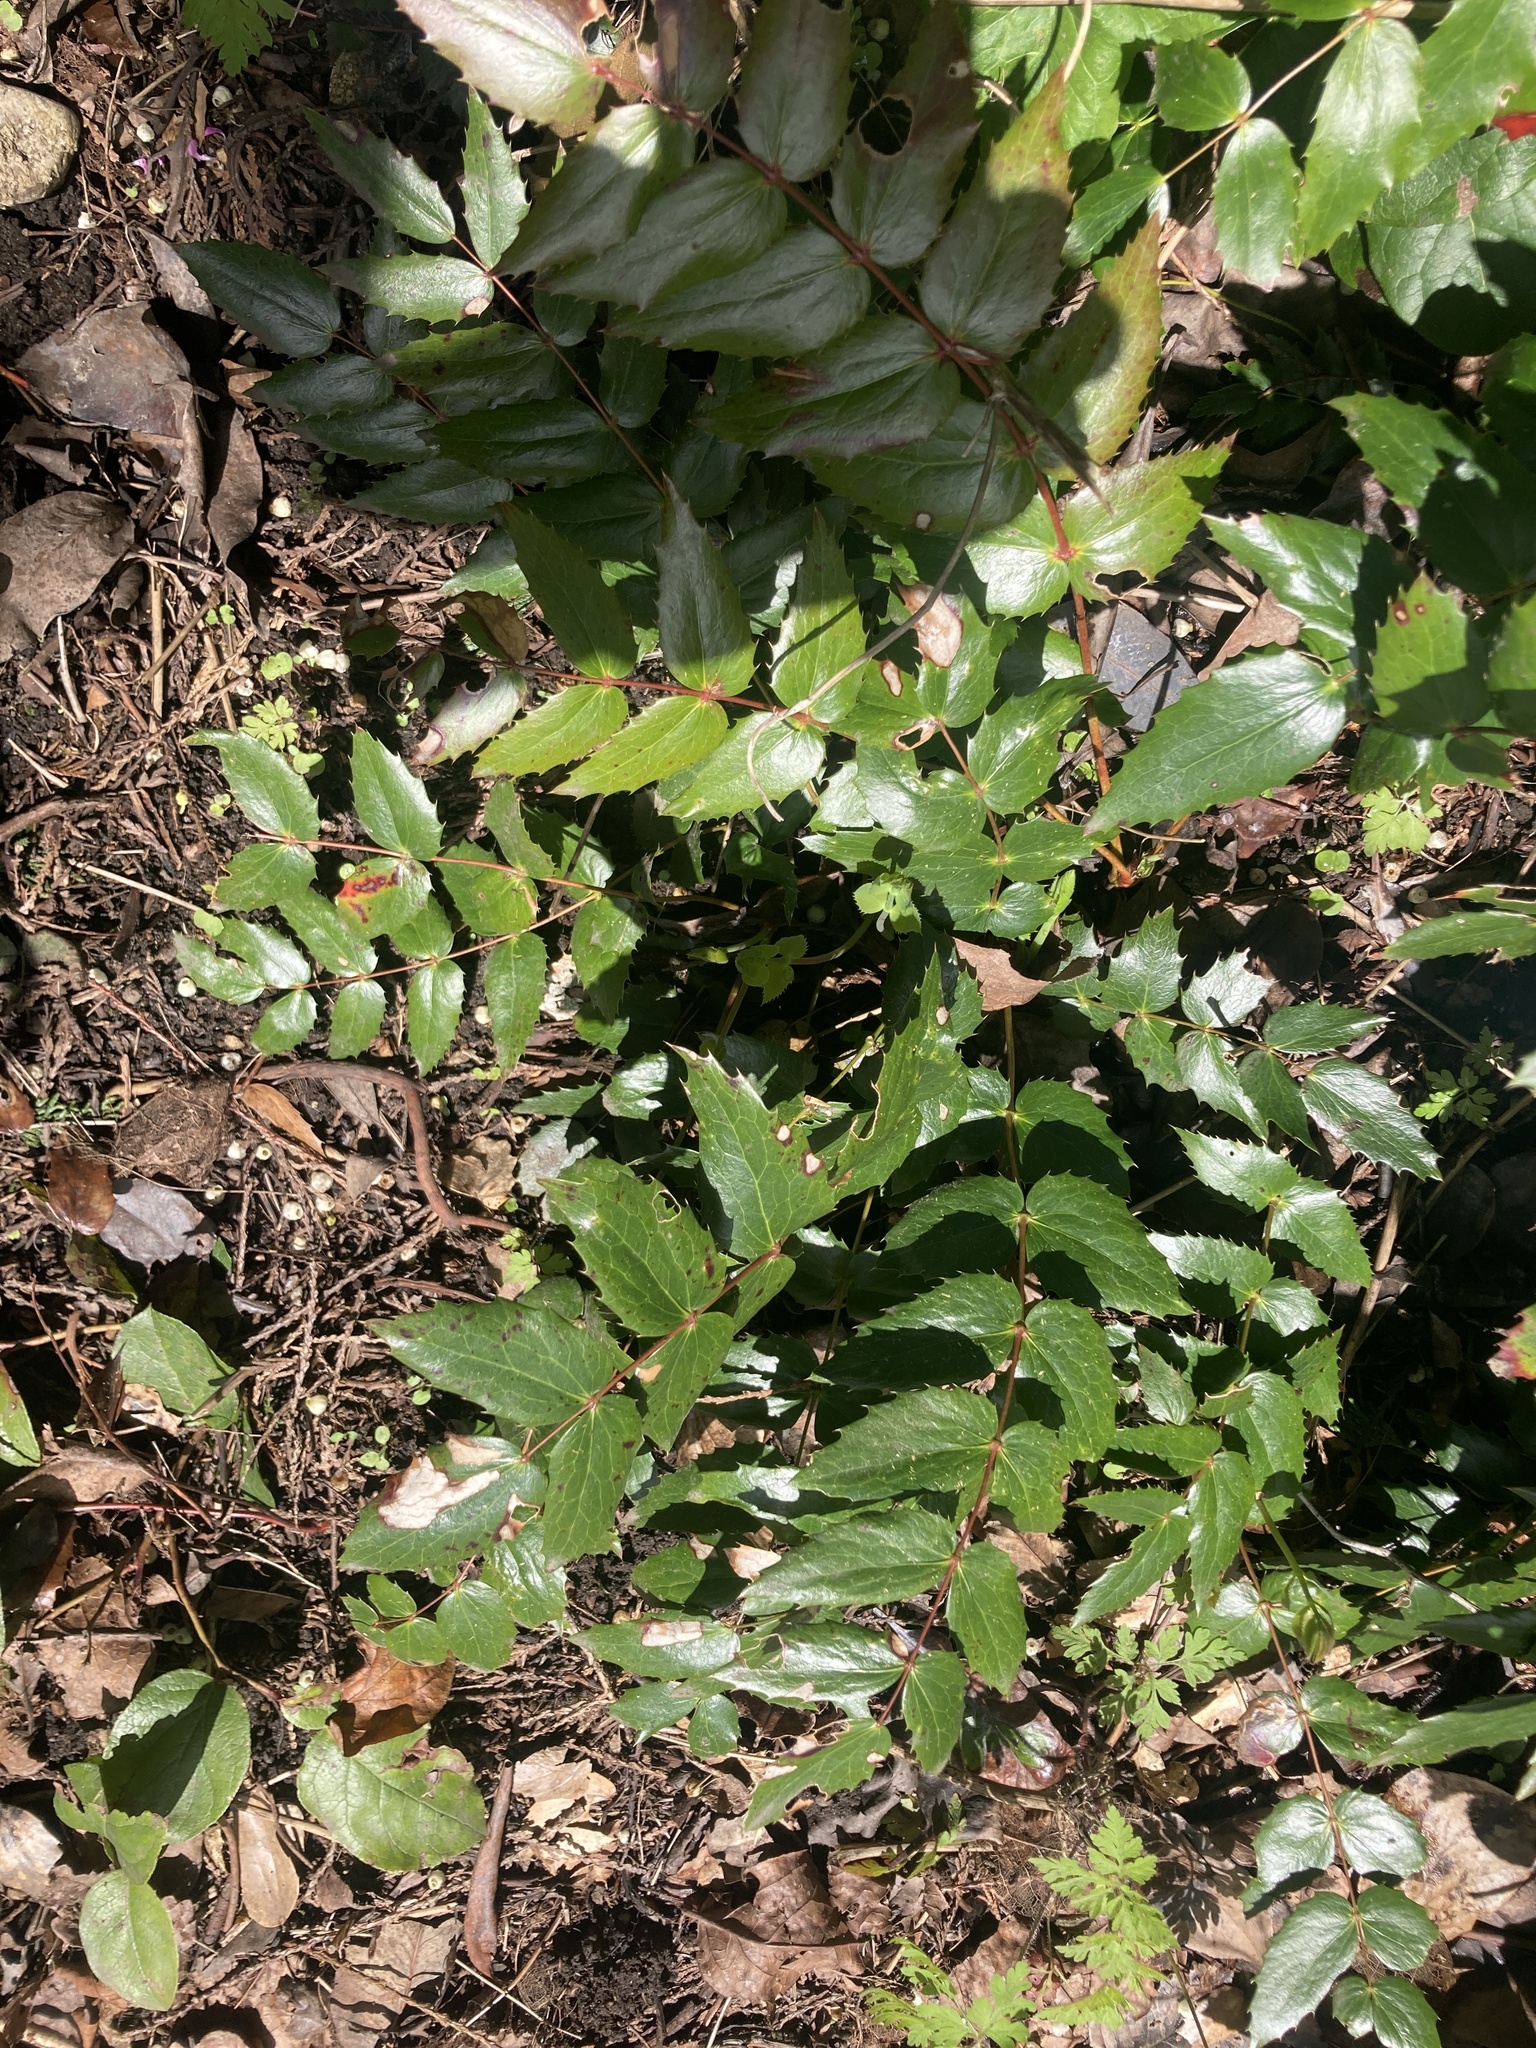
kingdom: Plantae
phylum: Tracheophyta
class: Magnoliopsida
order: Ranunculales
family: Berberidaceae
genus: Mahonia
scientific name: Mahonia nervosa
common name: Cascade oregon-grape
